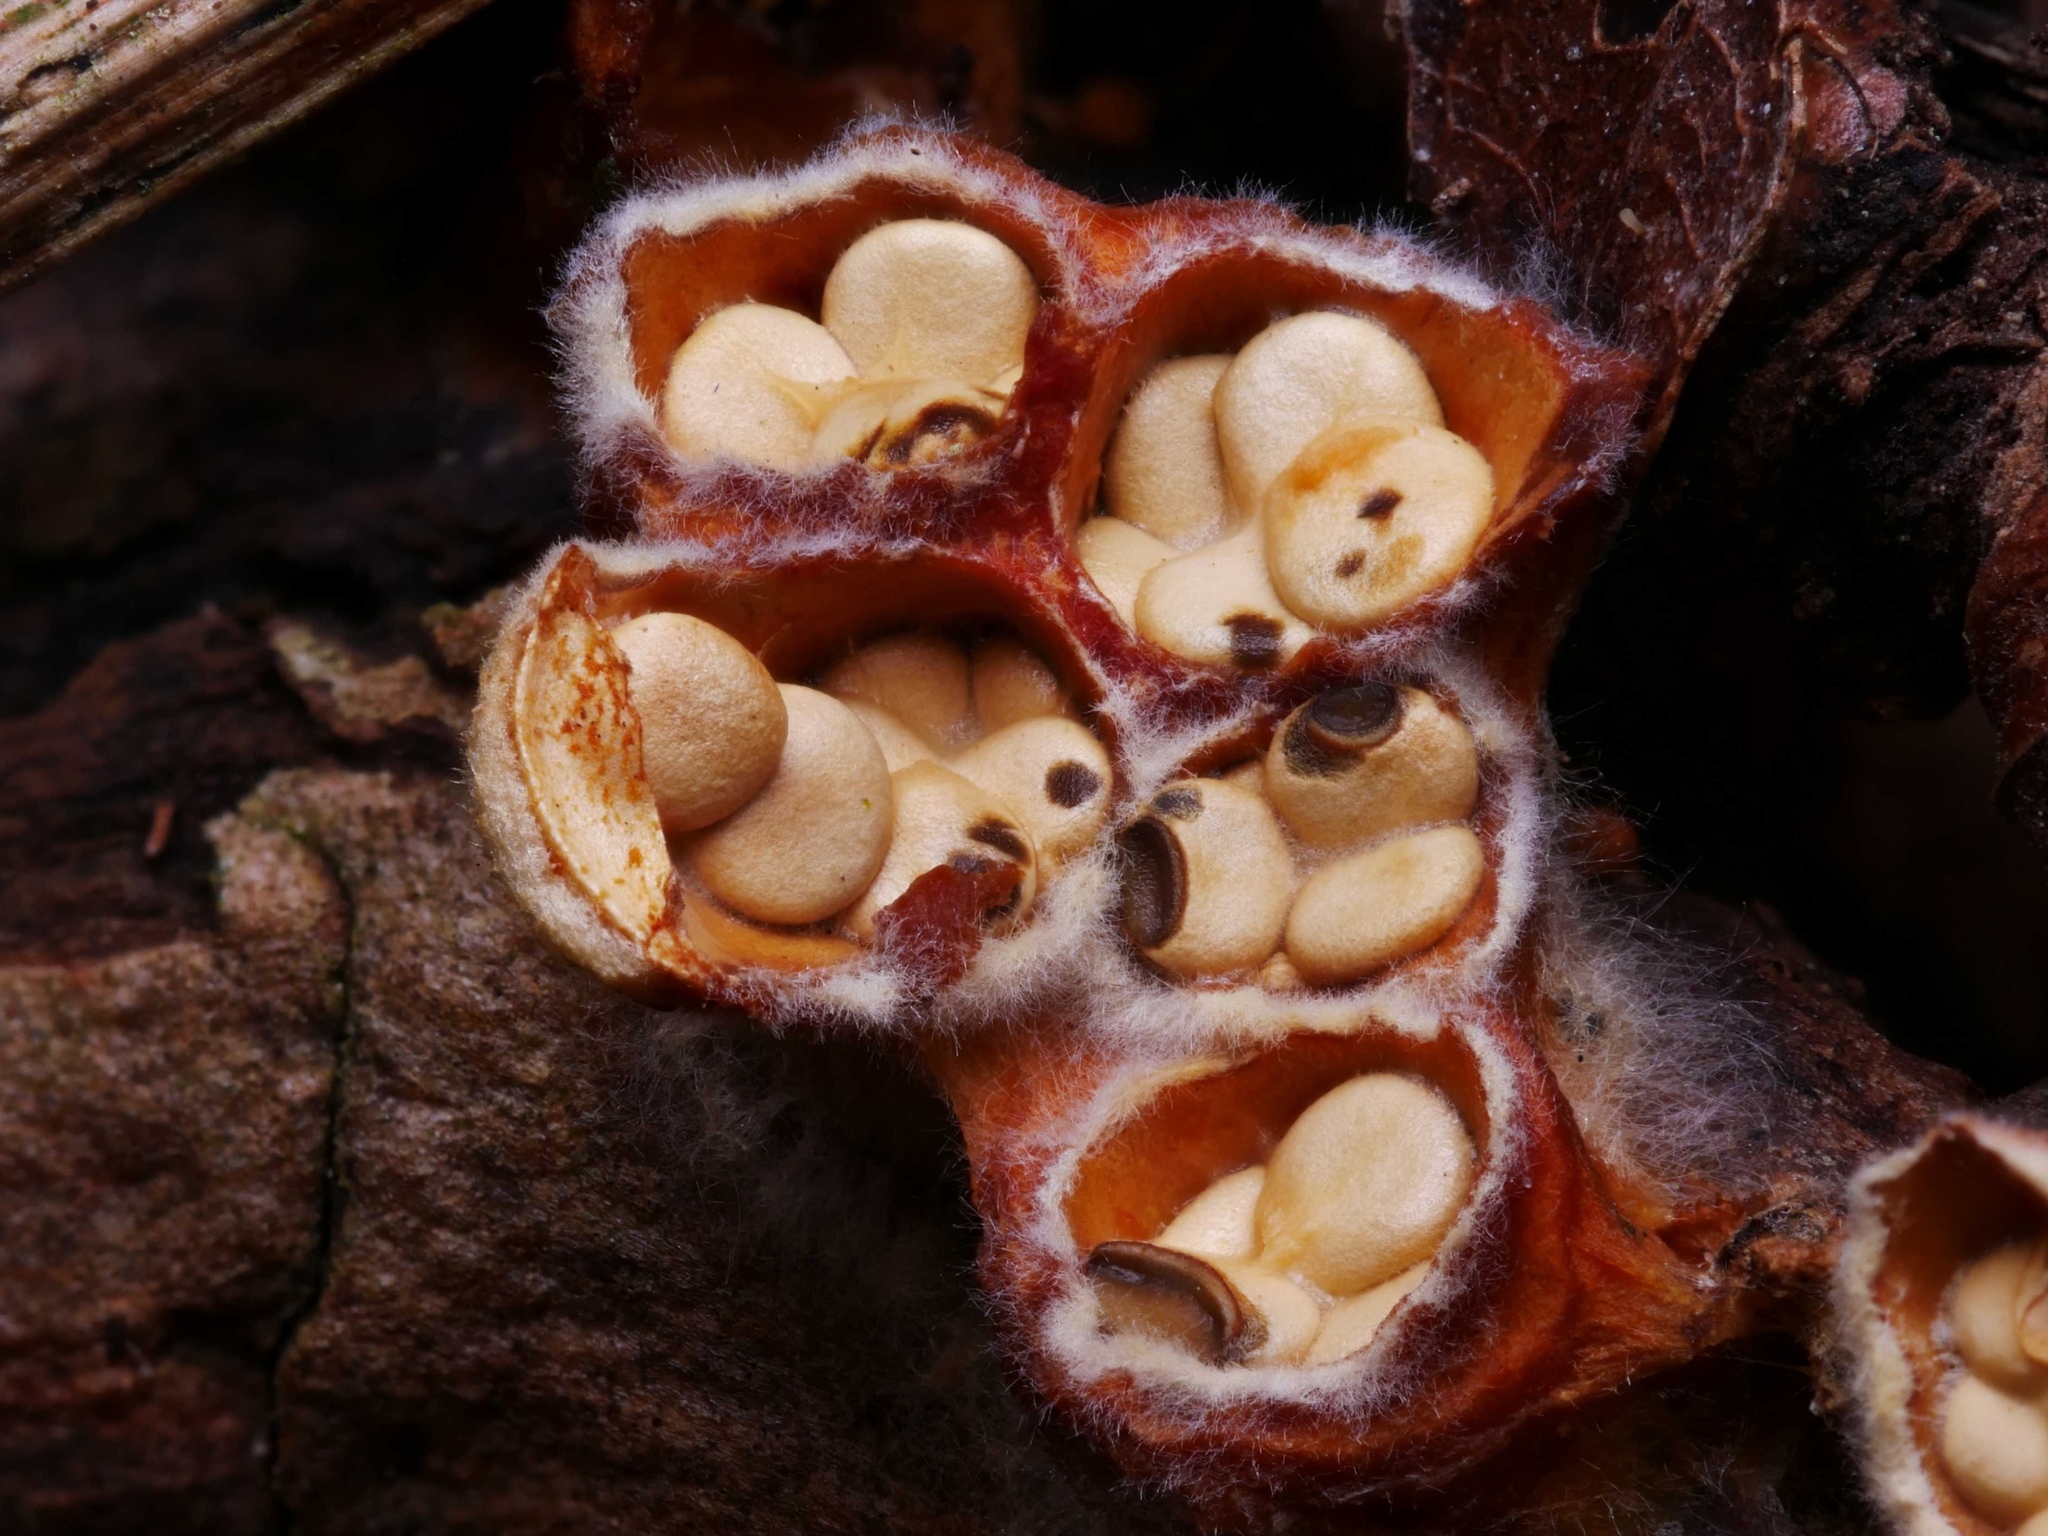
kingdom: Fungi
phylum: Basidiomycota
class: Agaricomycetes
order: Agaricales
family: Nidulariaceae
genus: Crucibulum
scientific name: Crucibulum laeve
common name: Common bird's nest
